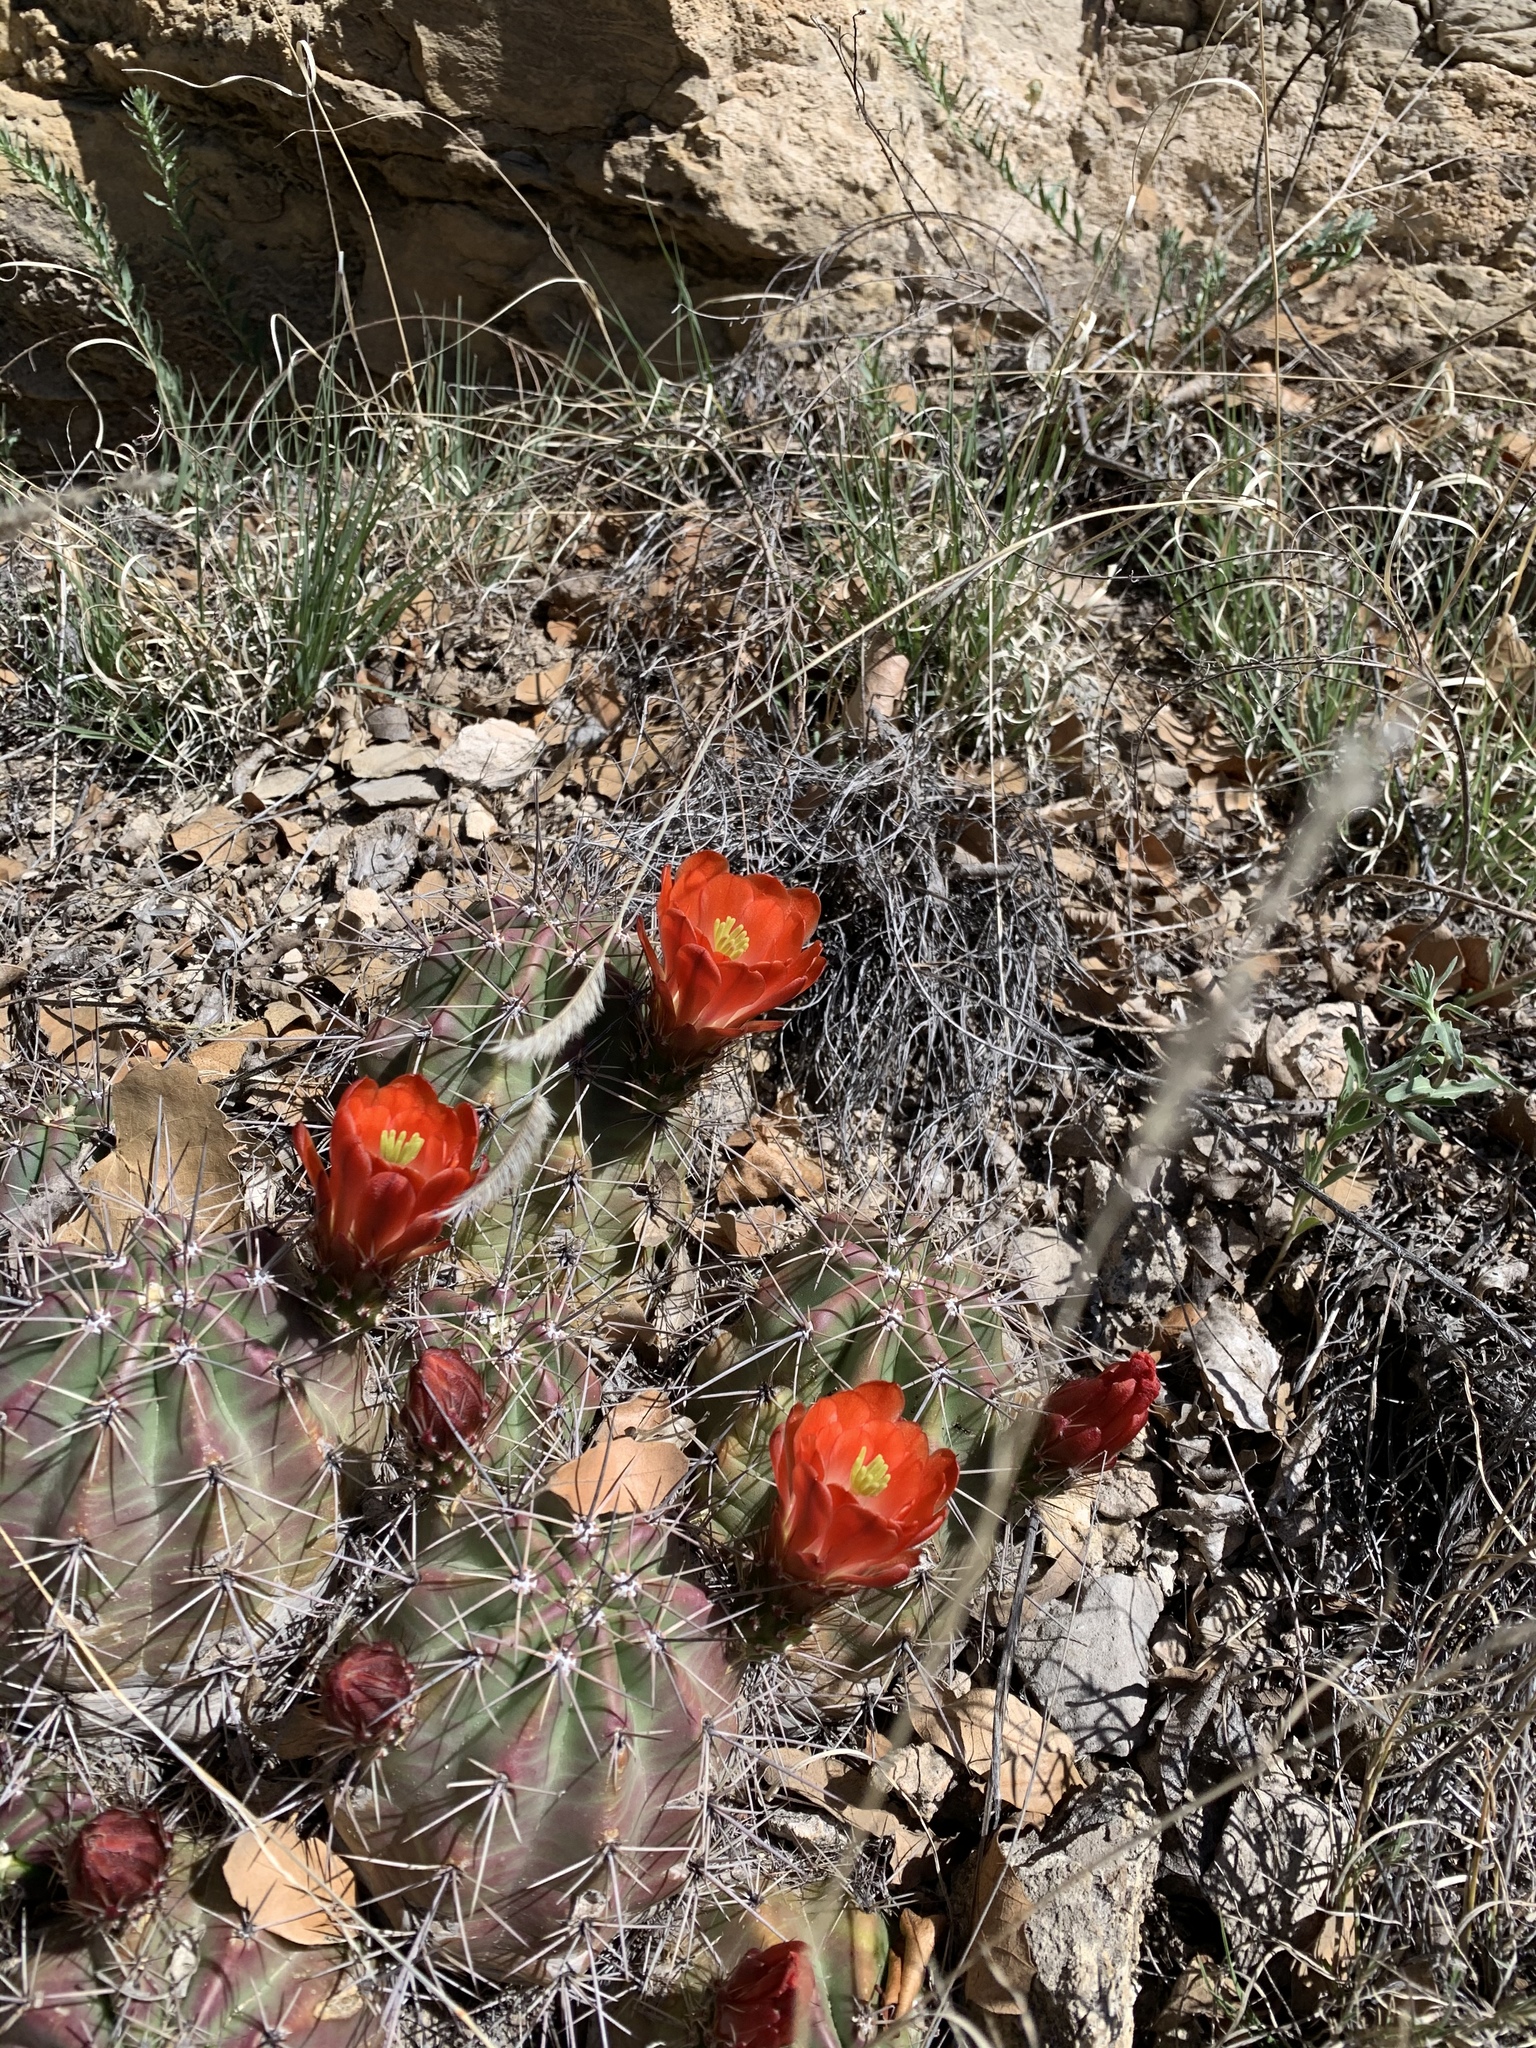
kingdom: Plantae
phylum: Tracheophyta
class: Magnoliopsida
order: Caryophyllales
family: Cactaceae
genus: Echinocereus
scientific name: Echinocereus coccineus
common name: Scarlet hedgehog cactus
